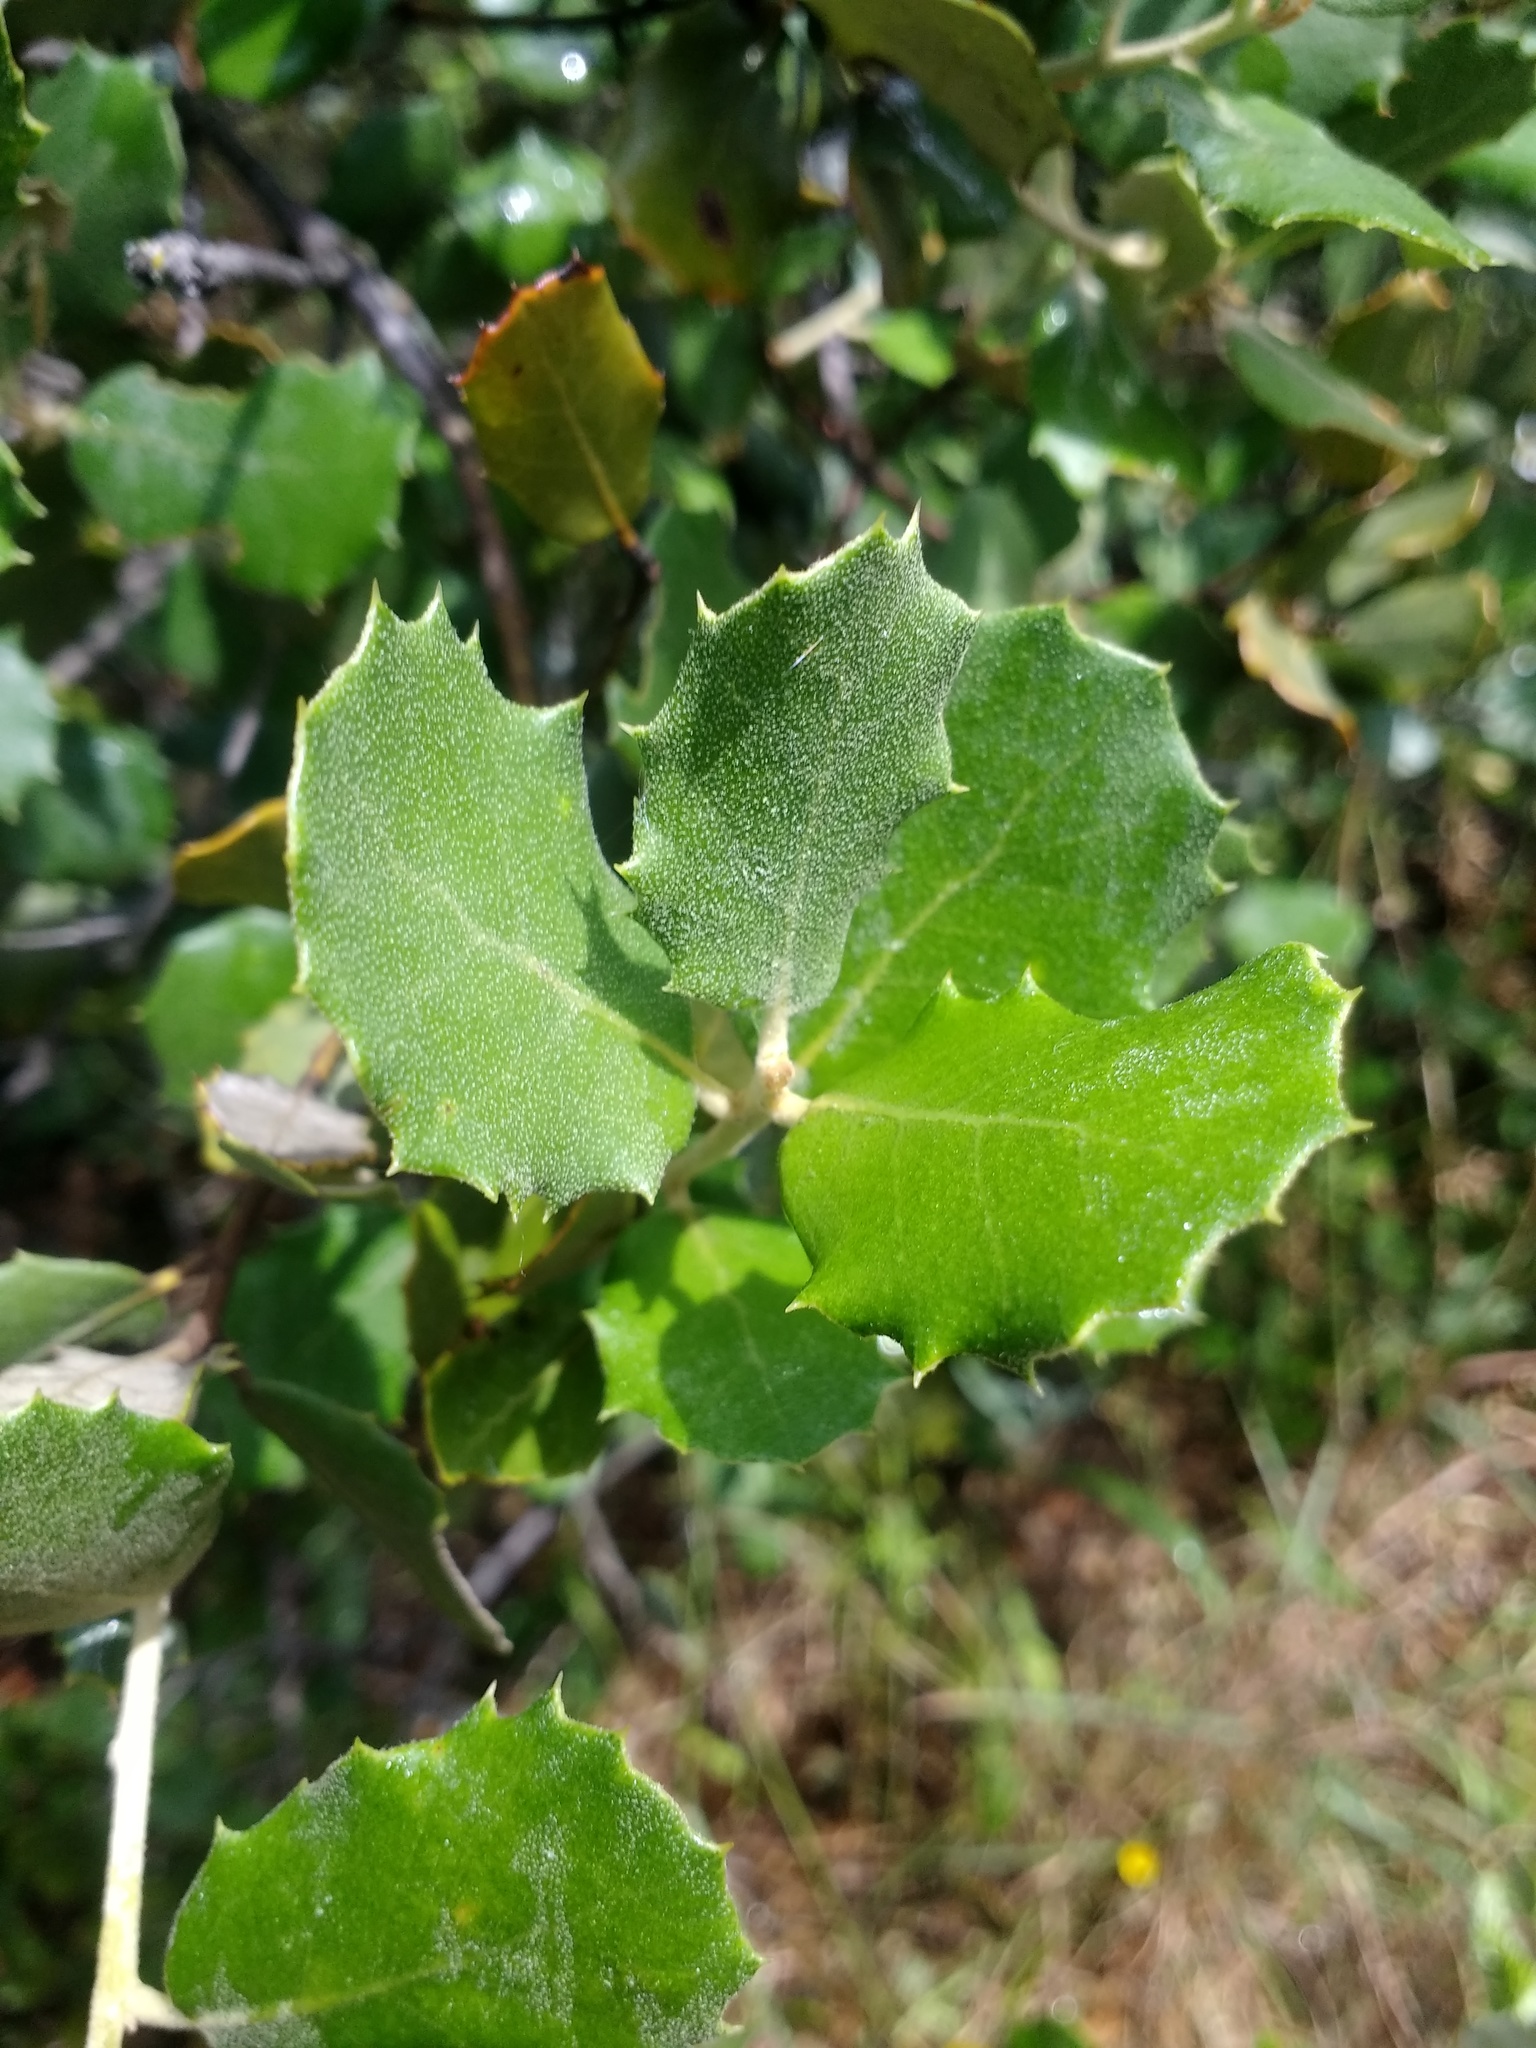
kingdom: Plantae
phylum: Tracheophyta
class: Magnoliopsida
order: Fagales
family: Fagaceae
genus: Quercus
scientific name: Quercus rotundifolia
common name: Holm oak
